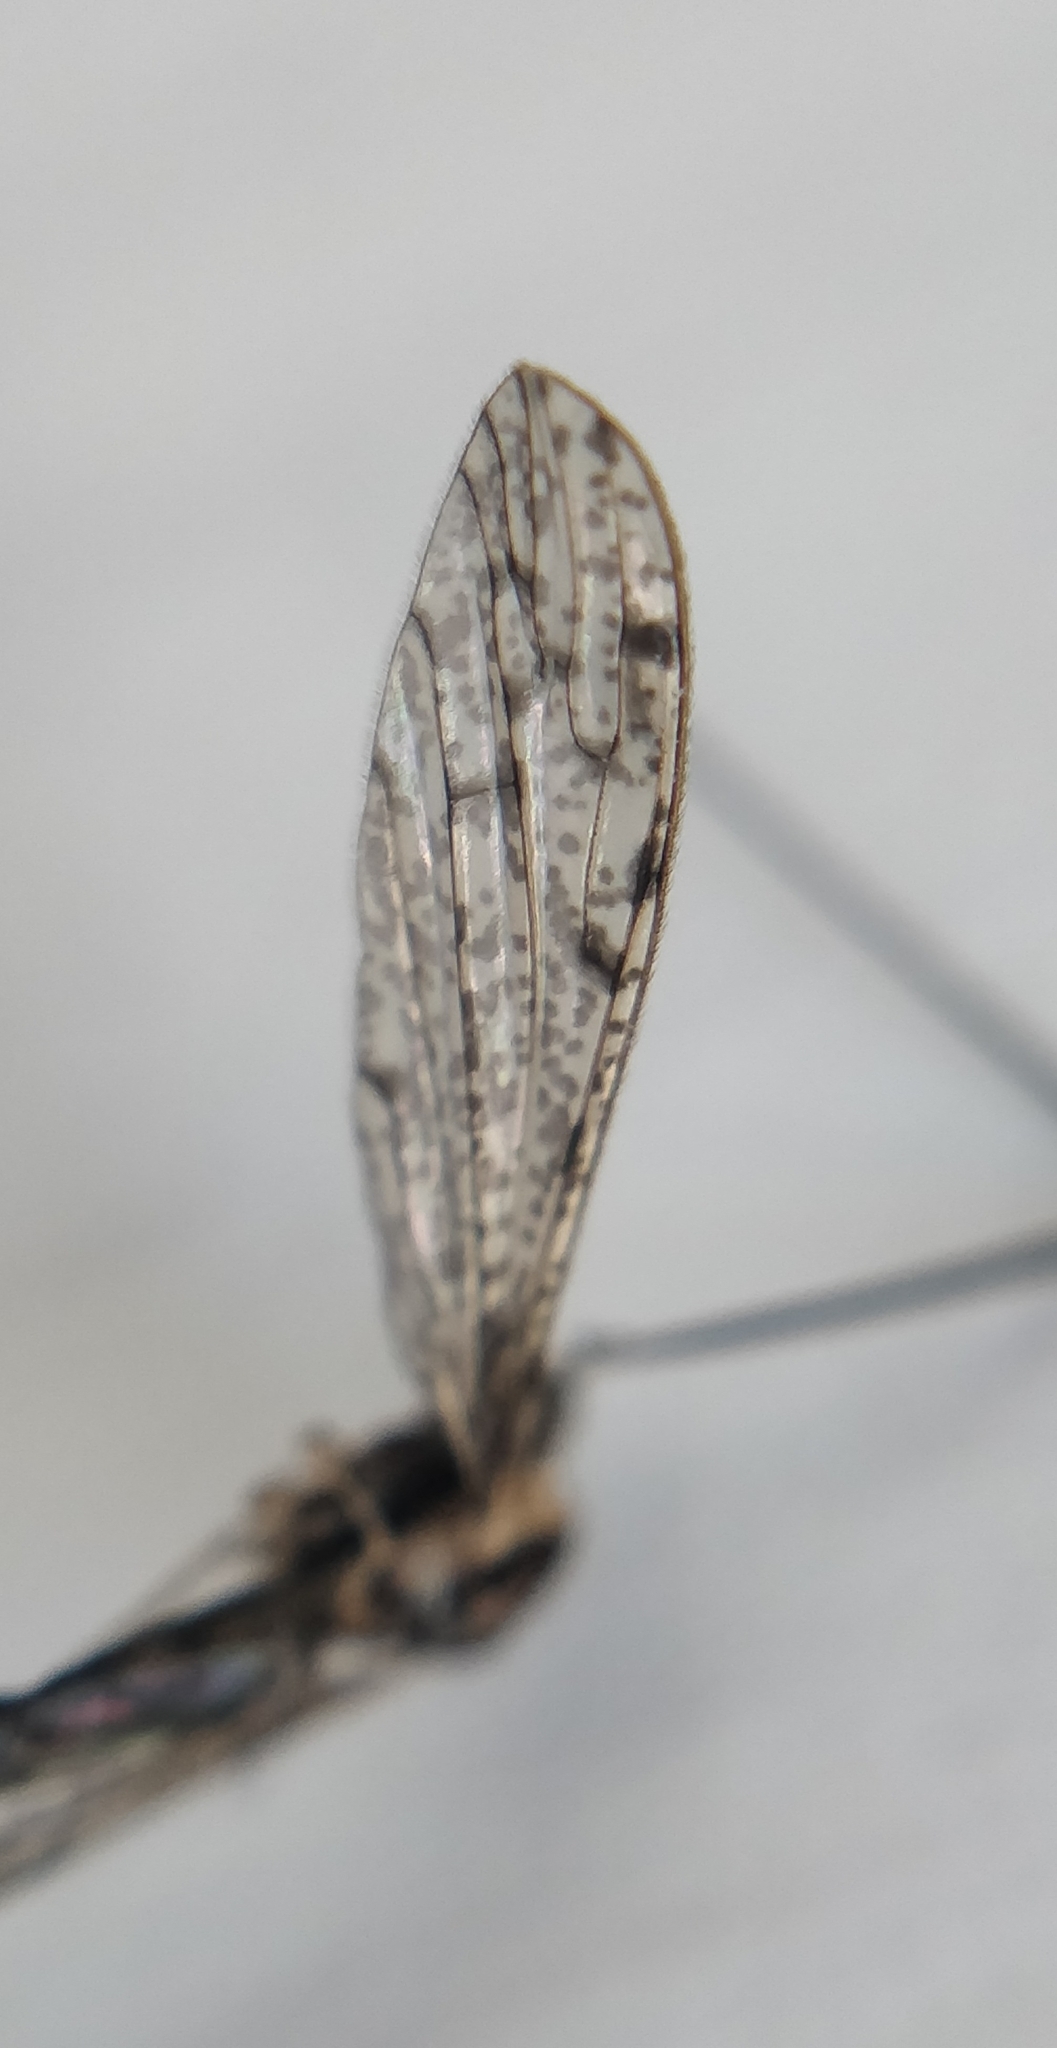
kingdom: Animalia
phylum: Arthropoda
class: Insecta
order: Diptera
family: Limoniidae
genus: Rhipidia
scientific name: Rhipidia schwarzi
